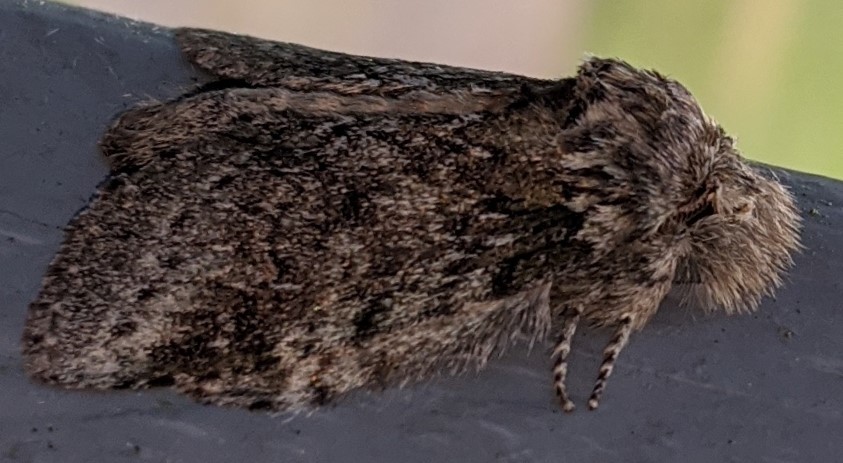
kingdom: Animalia
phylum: Arthropoda
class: Insecta
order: Lepidoptera
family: Notodontidae
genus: Disphragis
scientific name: Disphragis Cecrita guttivitta
